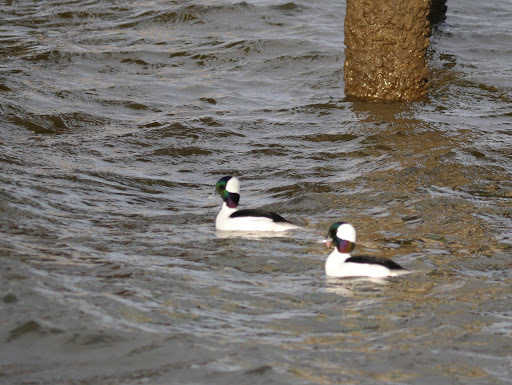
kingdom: Animalia
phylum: Chordata
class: Aves
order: Anseriformes
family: Anatidae
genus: Bucephala
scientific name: Bucephala albeola
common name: Bufflehead
